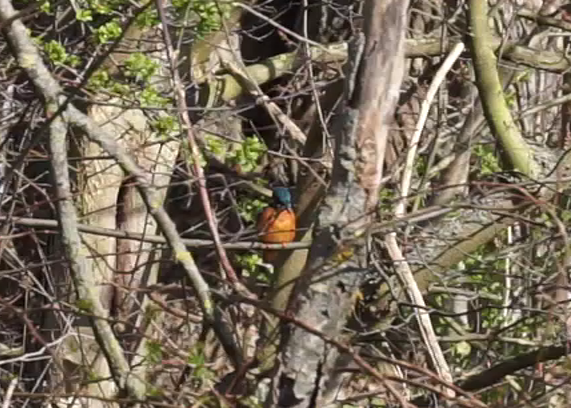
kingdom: Animalia
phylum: Chordata
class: Aves
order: Coraciiformes
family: Alcedinidae
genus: Alcedo
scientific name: Alcedo atthis
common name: Common kingfisher
